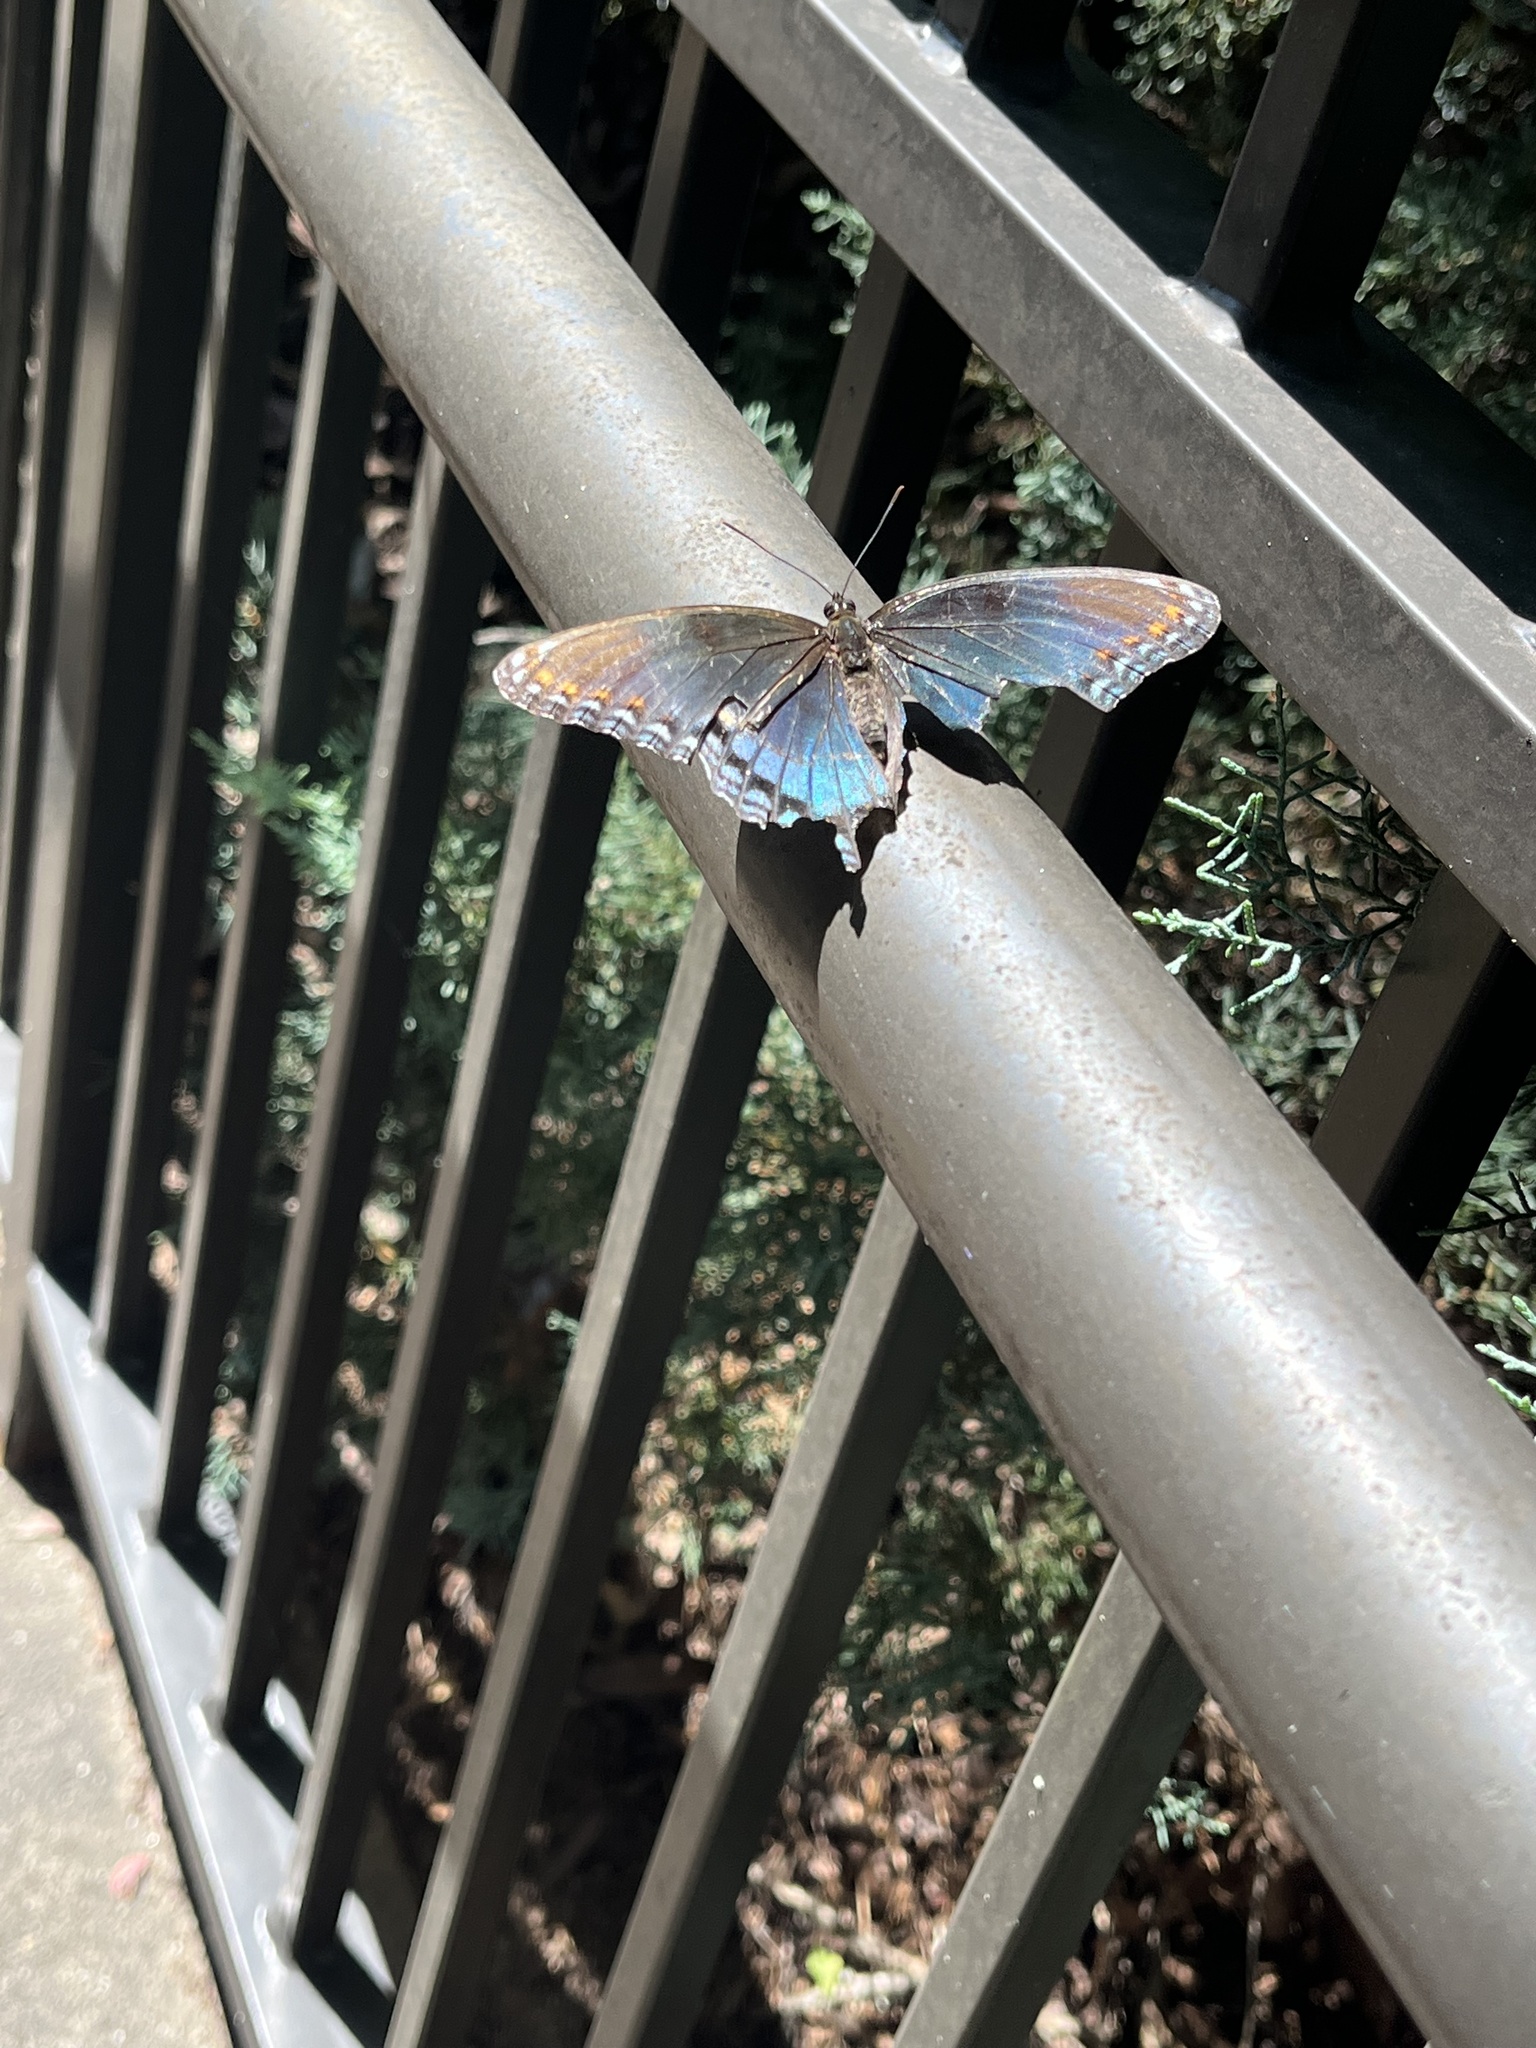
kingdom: Animalia
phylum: Arthropoda
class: Insecta
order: Lepidoptera
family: Nymphalidae
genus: Limenitis
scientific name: Limenitis astyanax
